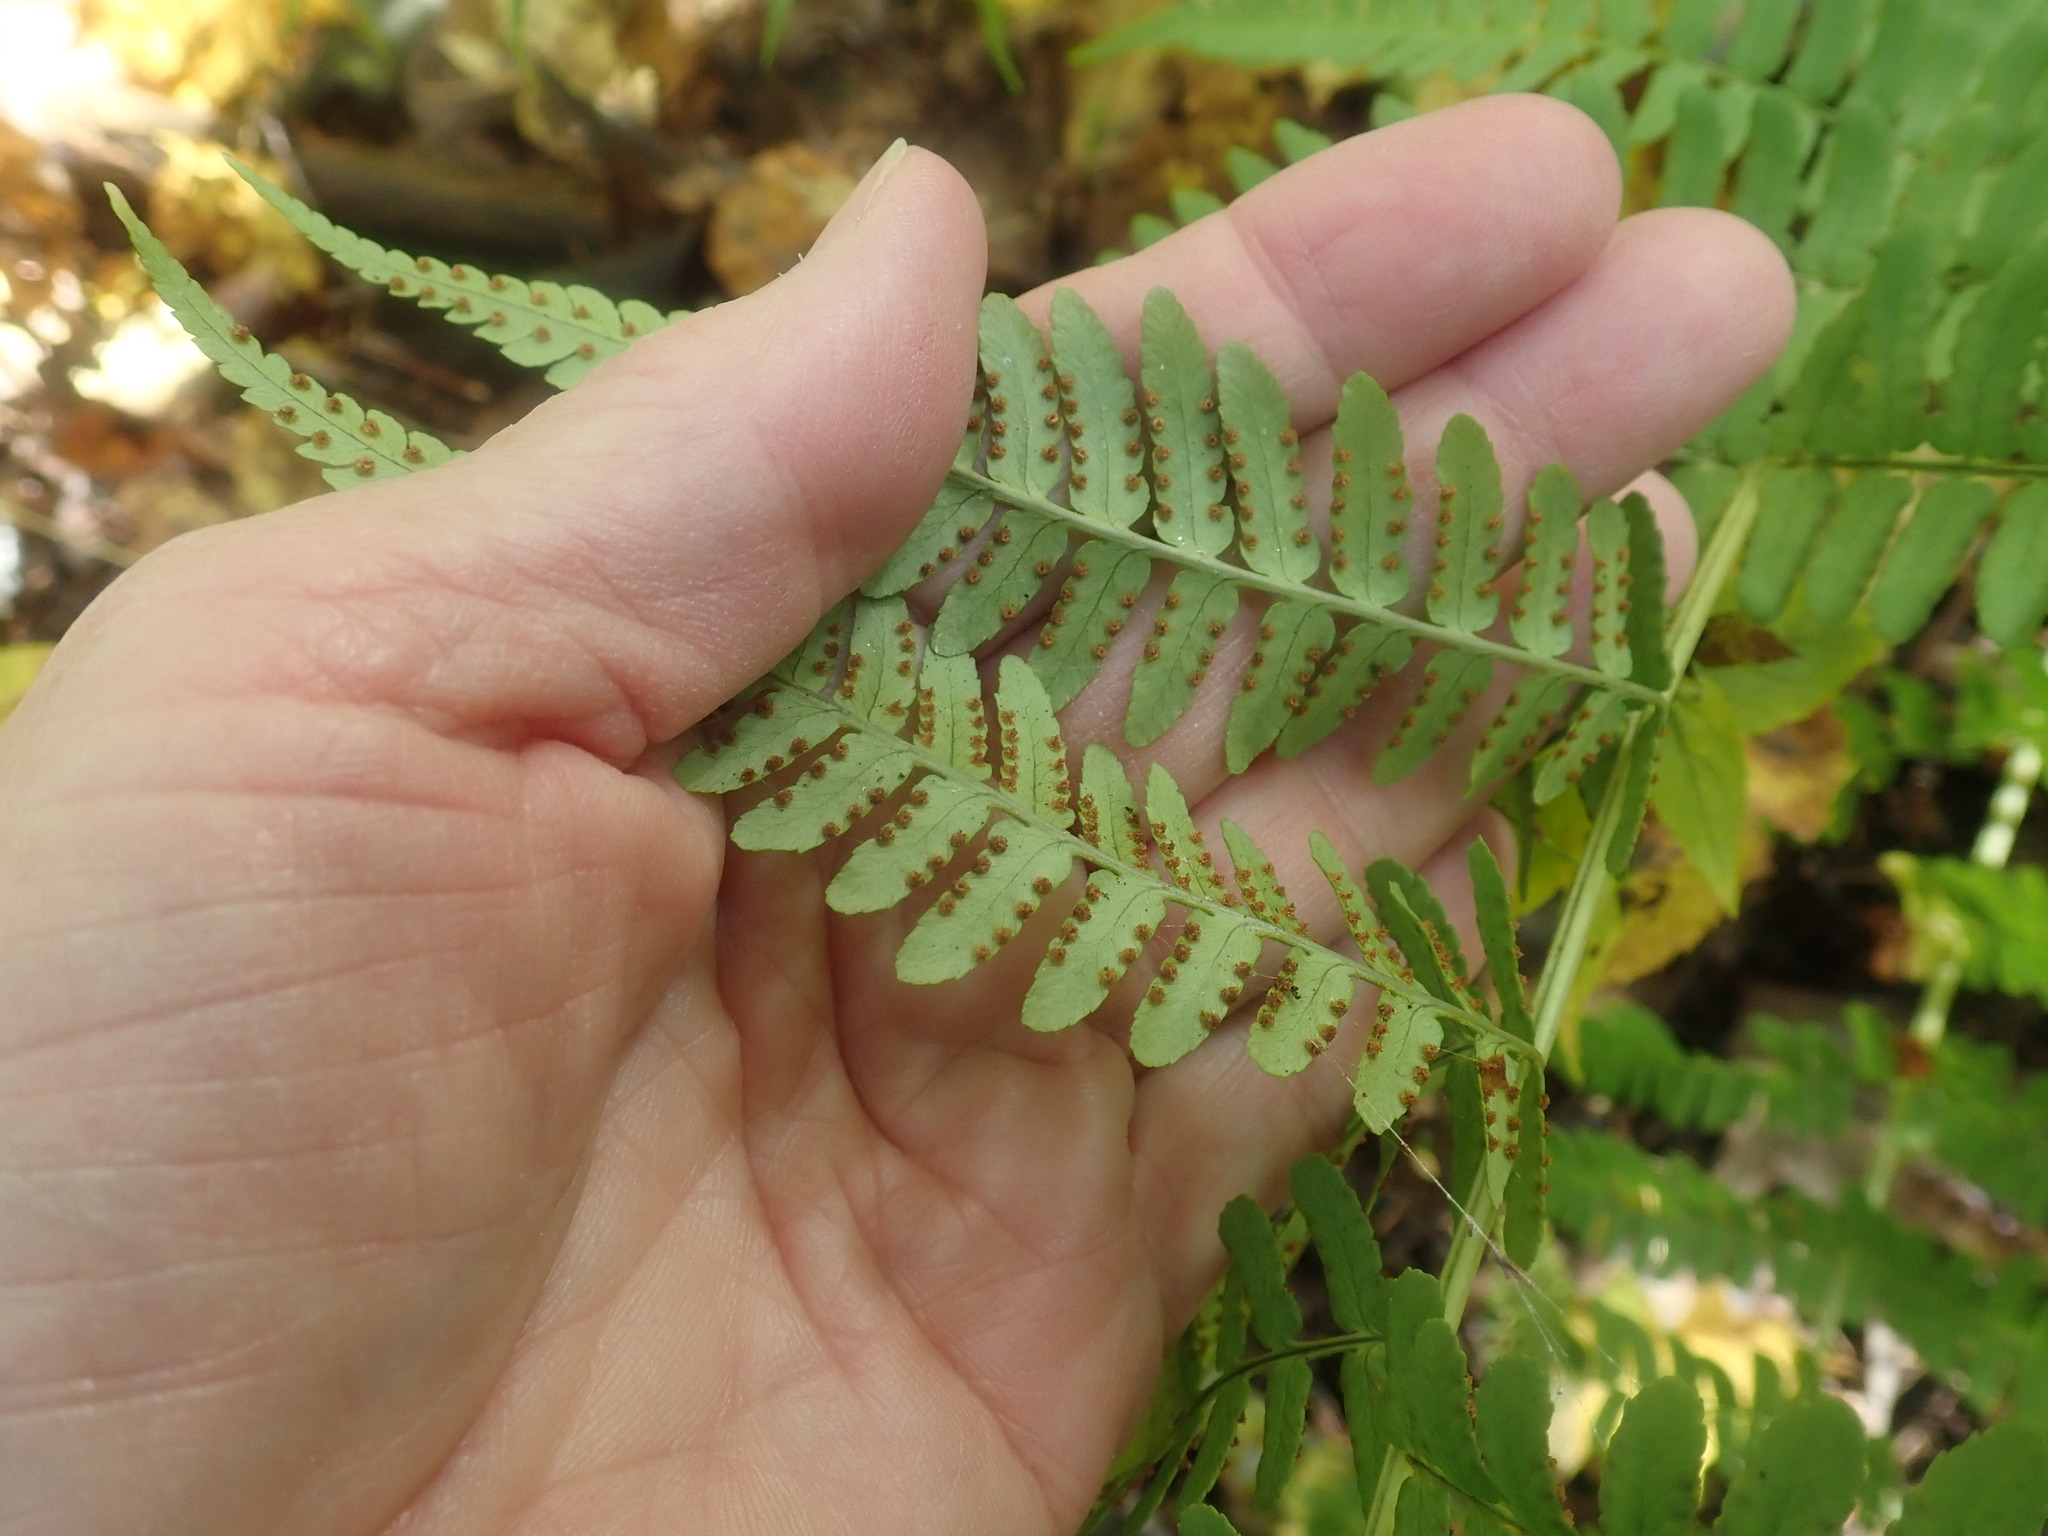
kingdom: Plantae
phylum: Tracheophyta
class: Polypodiopsida
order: Polypodiales
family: Dryopteridaceae
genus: Dryopteris
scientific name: Dryopteris marginalis
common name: Marginal wood fern
